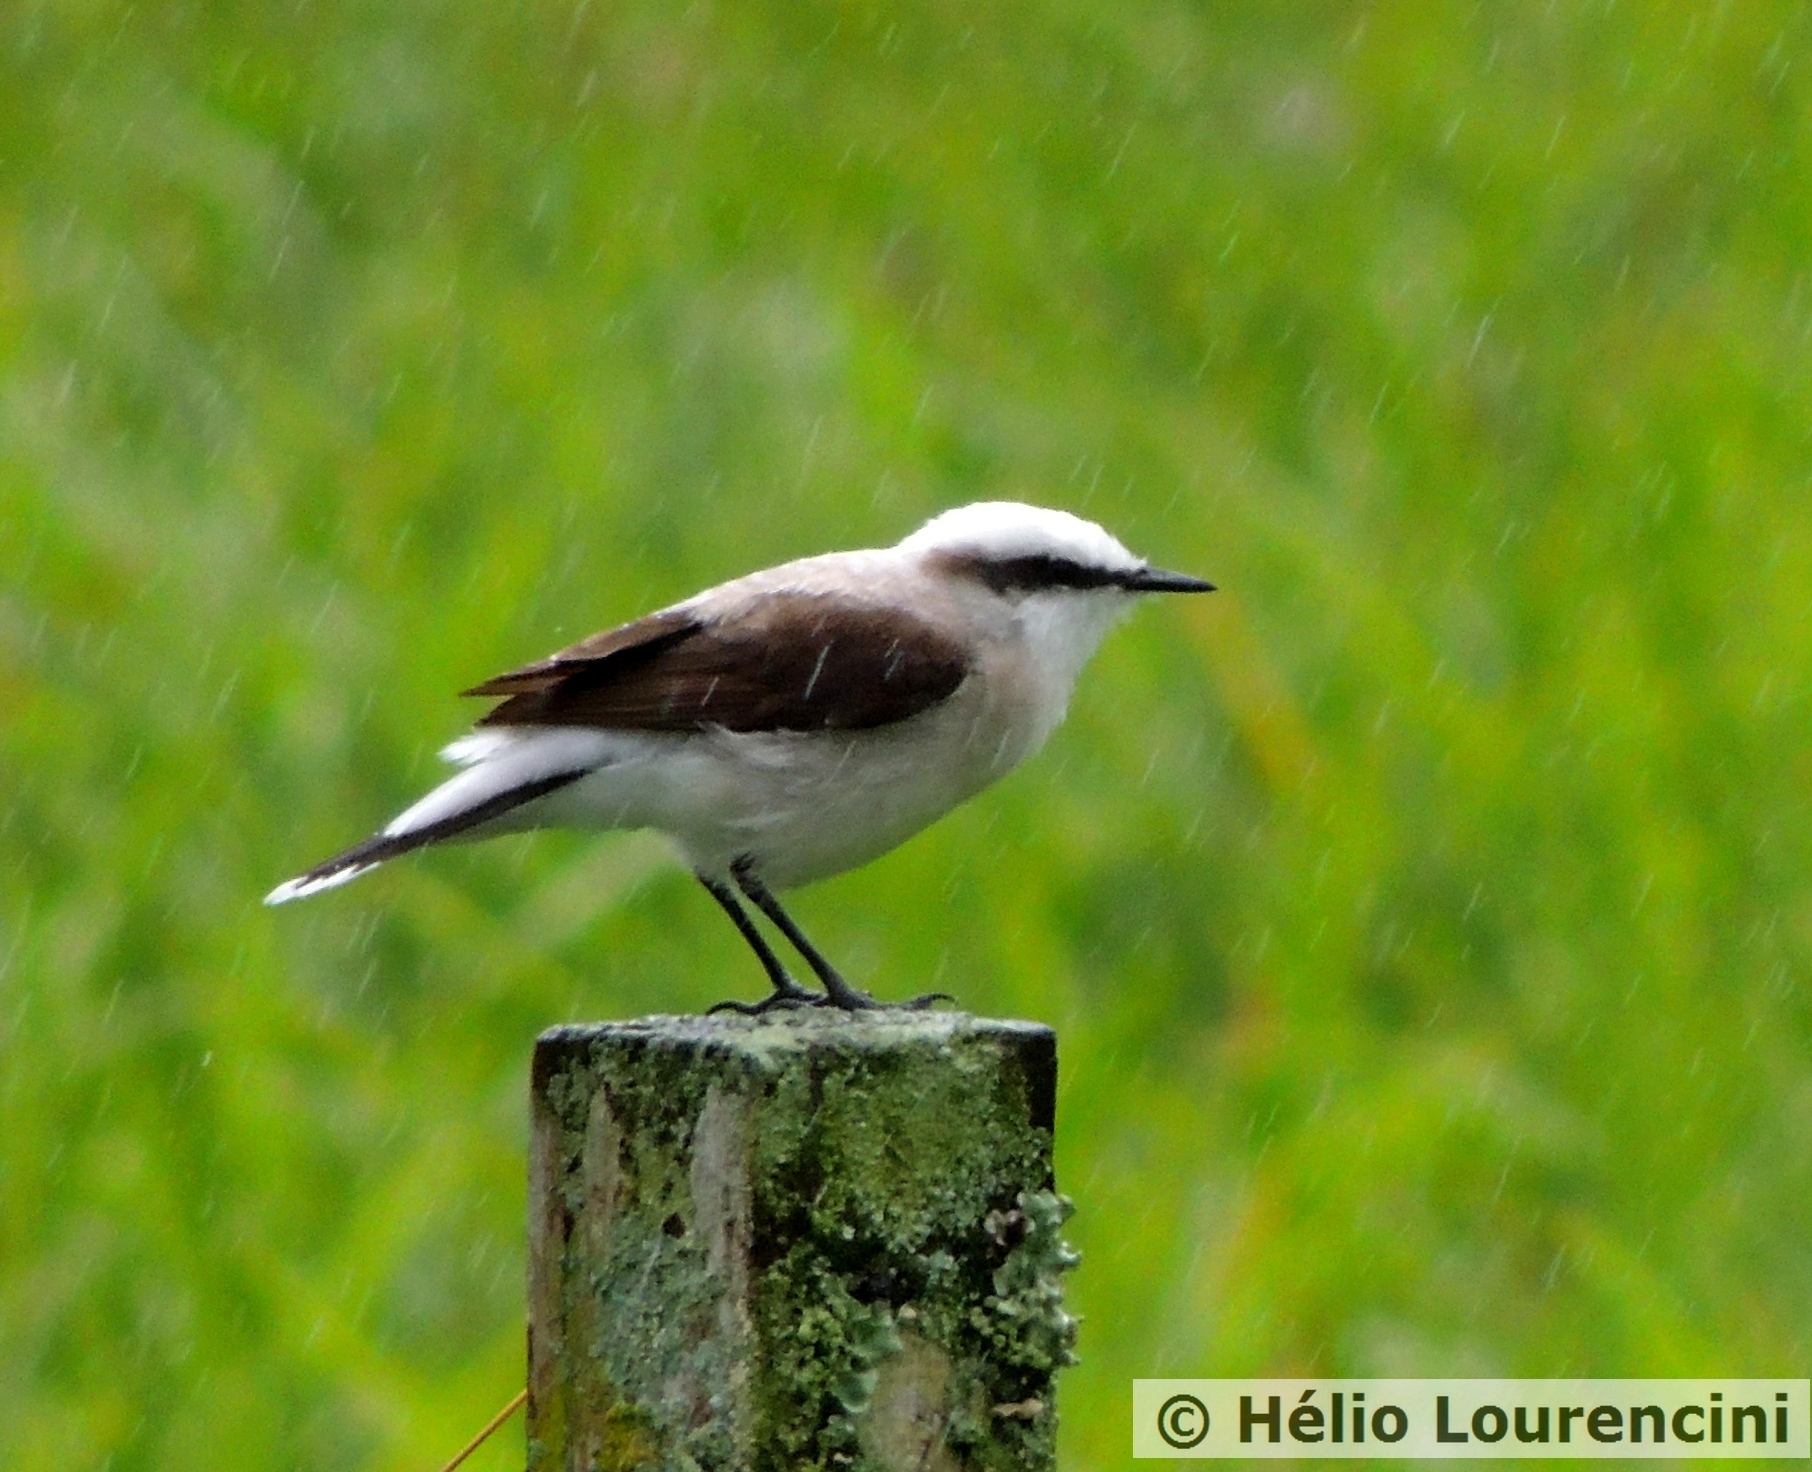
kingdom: Animalia
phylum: Chordata
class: Aves
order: Passeriformes
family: Tyrannidae
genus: Fluvicola
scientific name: Fluvicola nengeta
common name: Masked water tyrant
